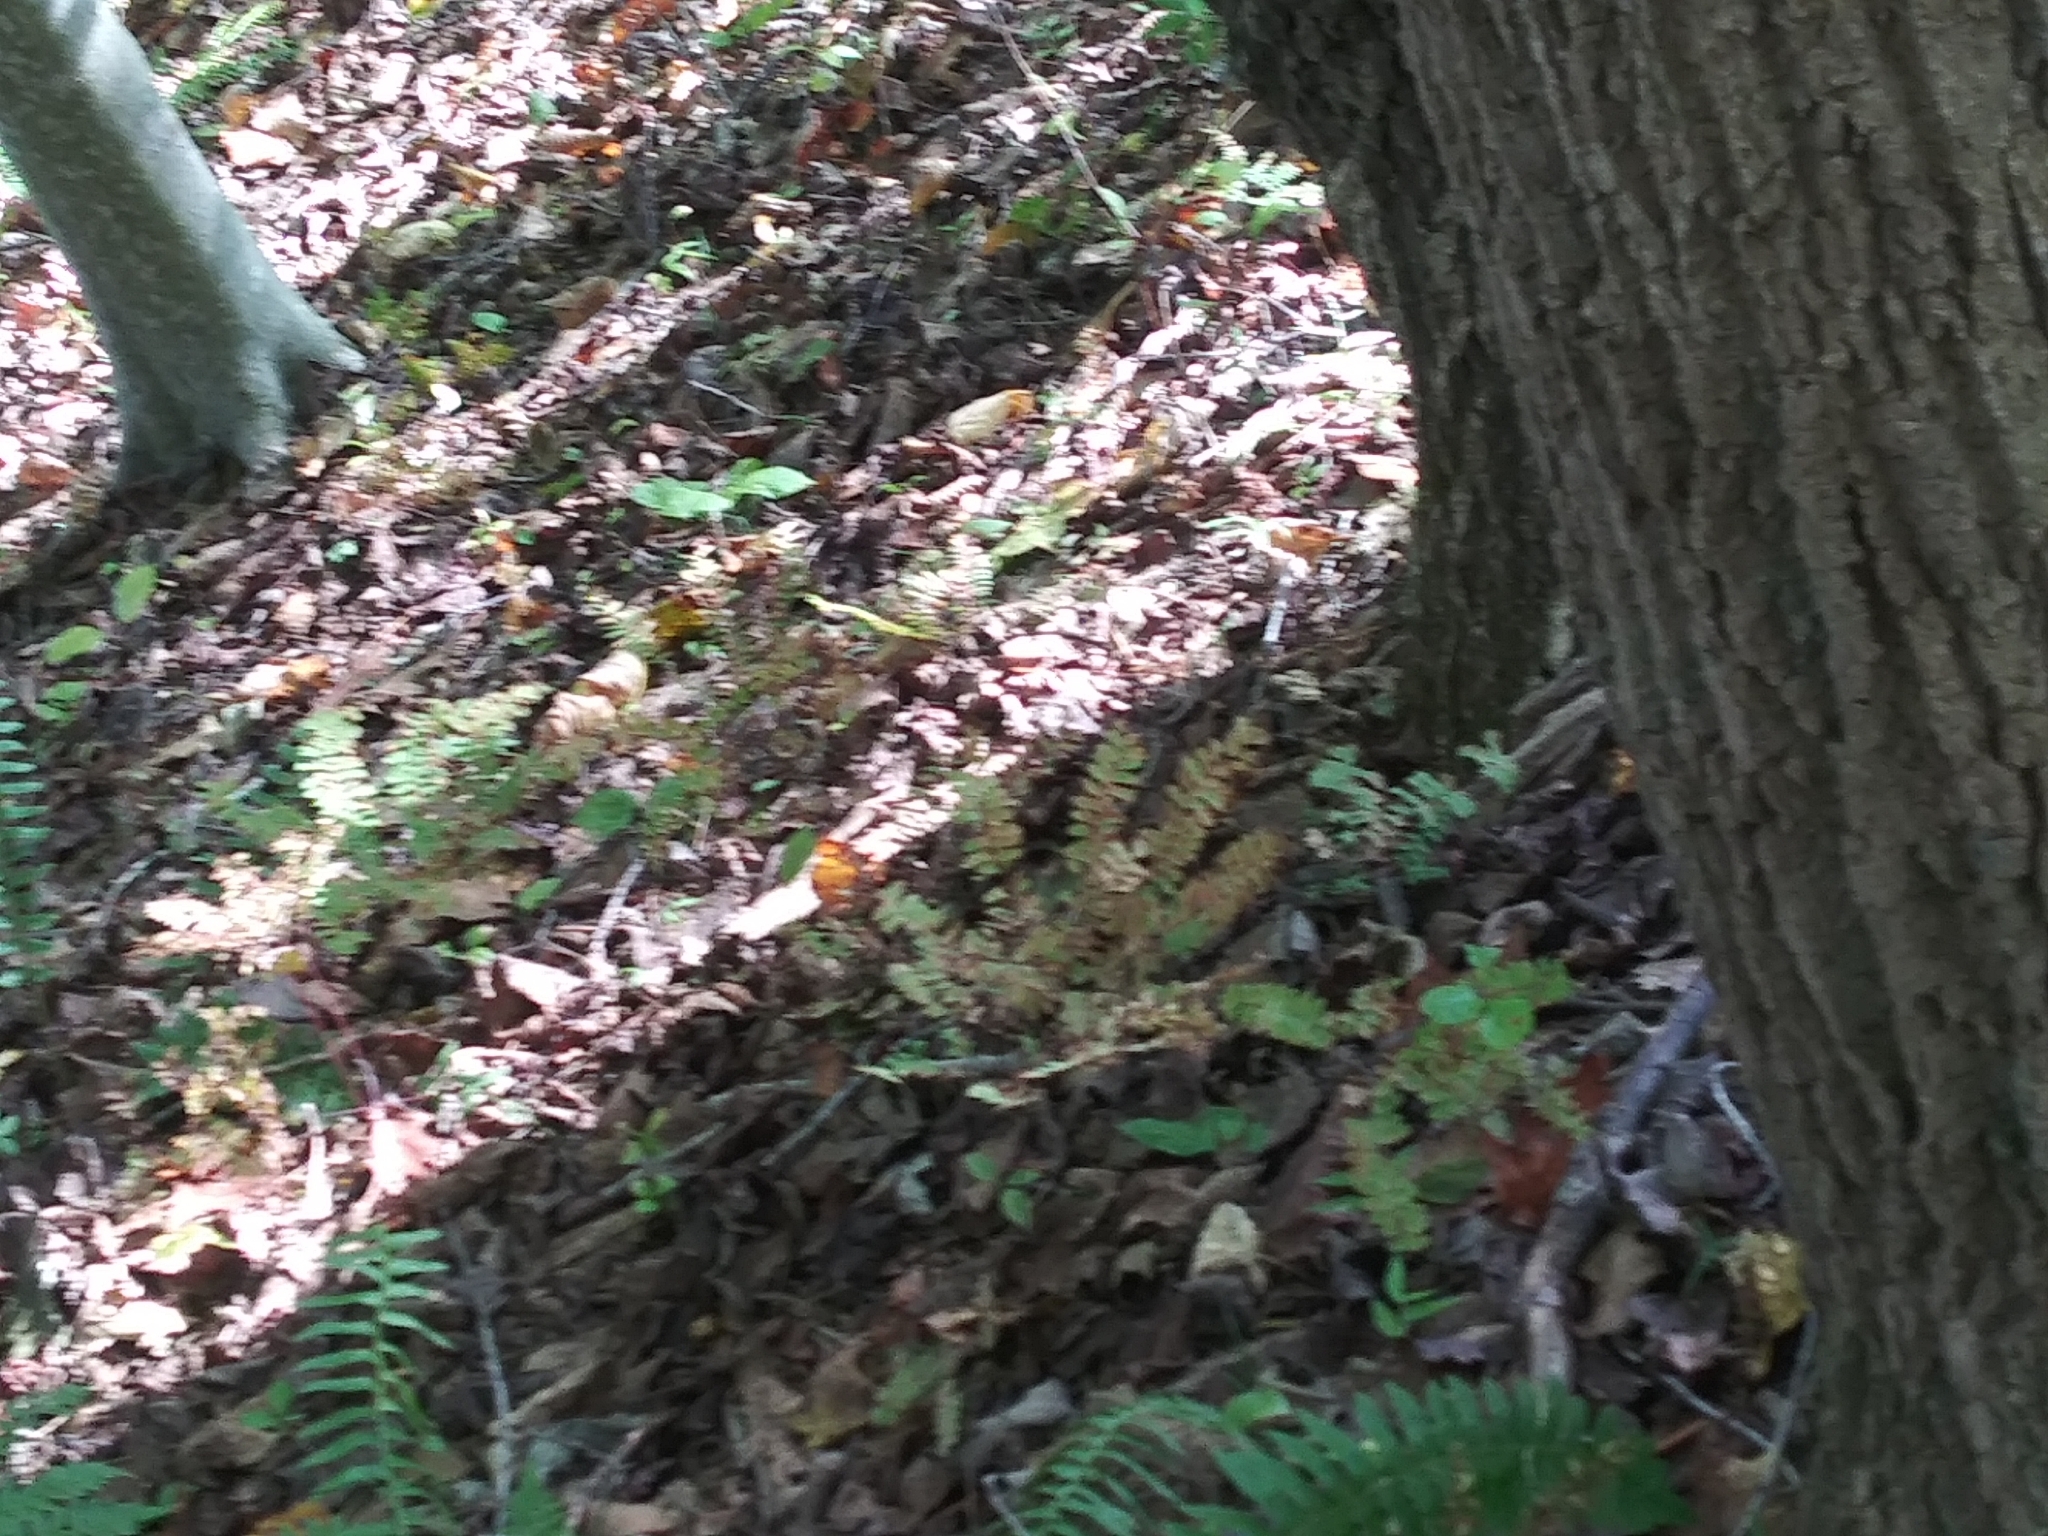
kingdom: Plantae
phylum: Tracheophyta
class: Polypodiopsida
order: Polypodiales
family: Pteridaceae
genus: Adiantum
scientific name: Adiantum pedatum
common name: Five-finger fern
